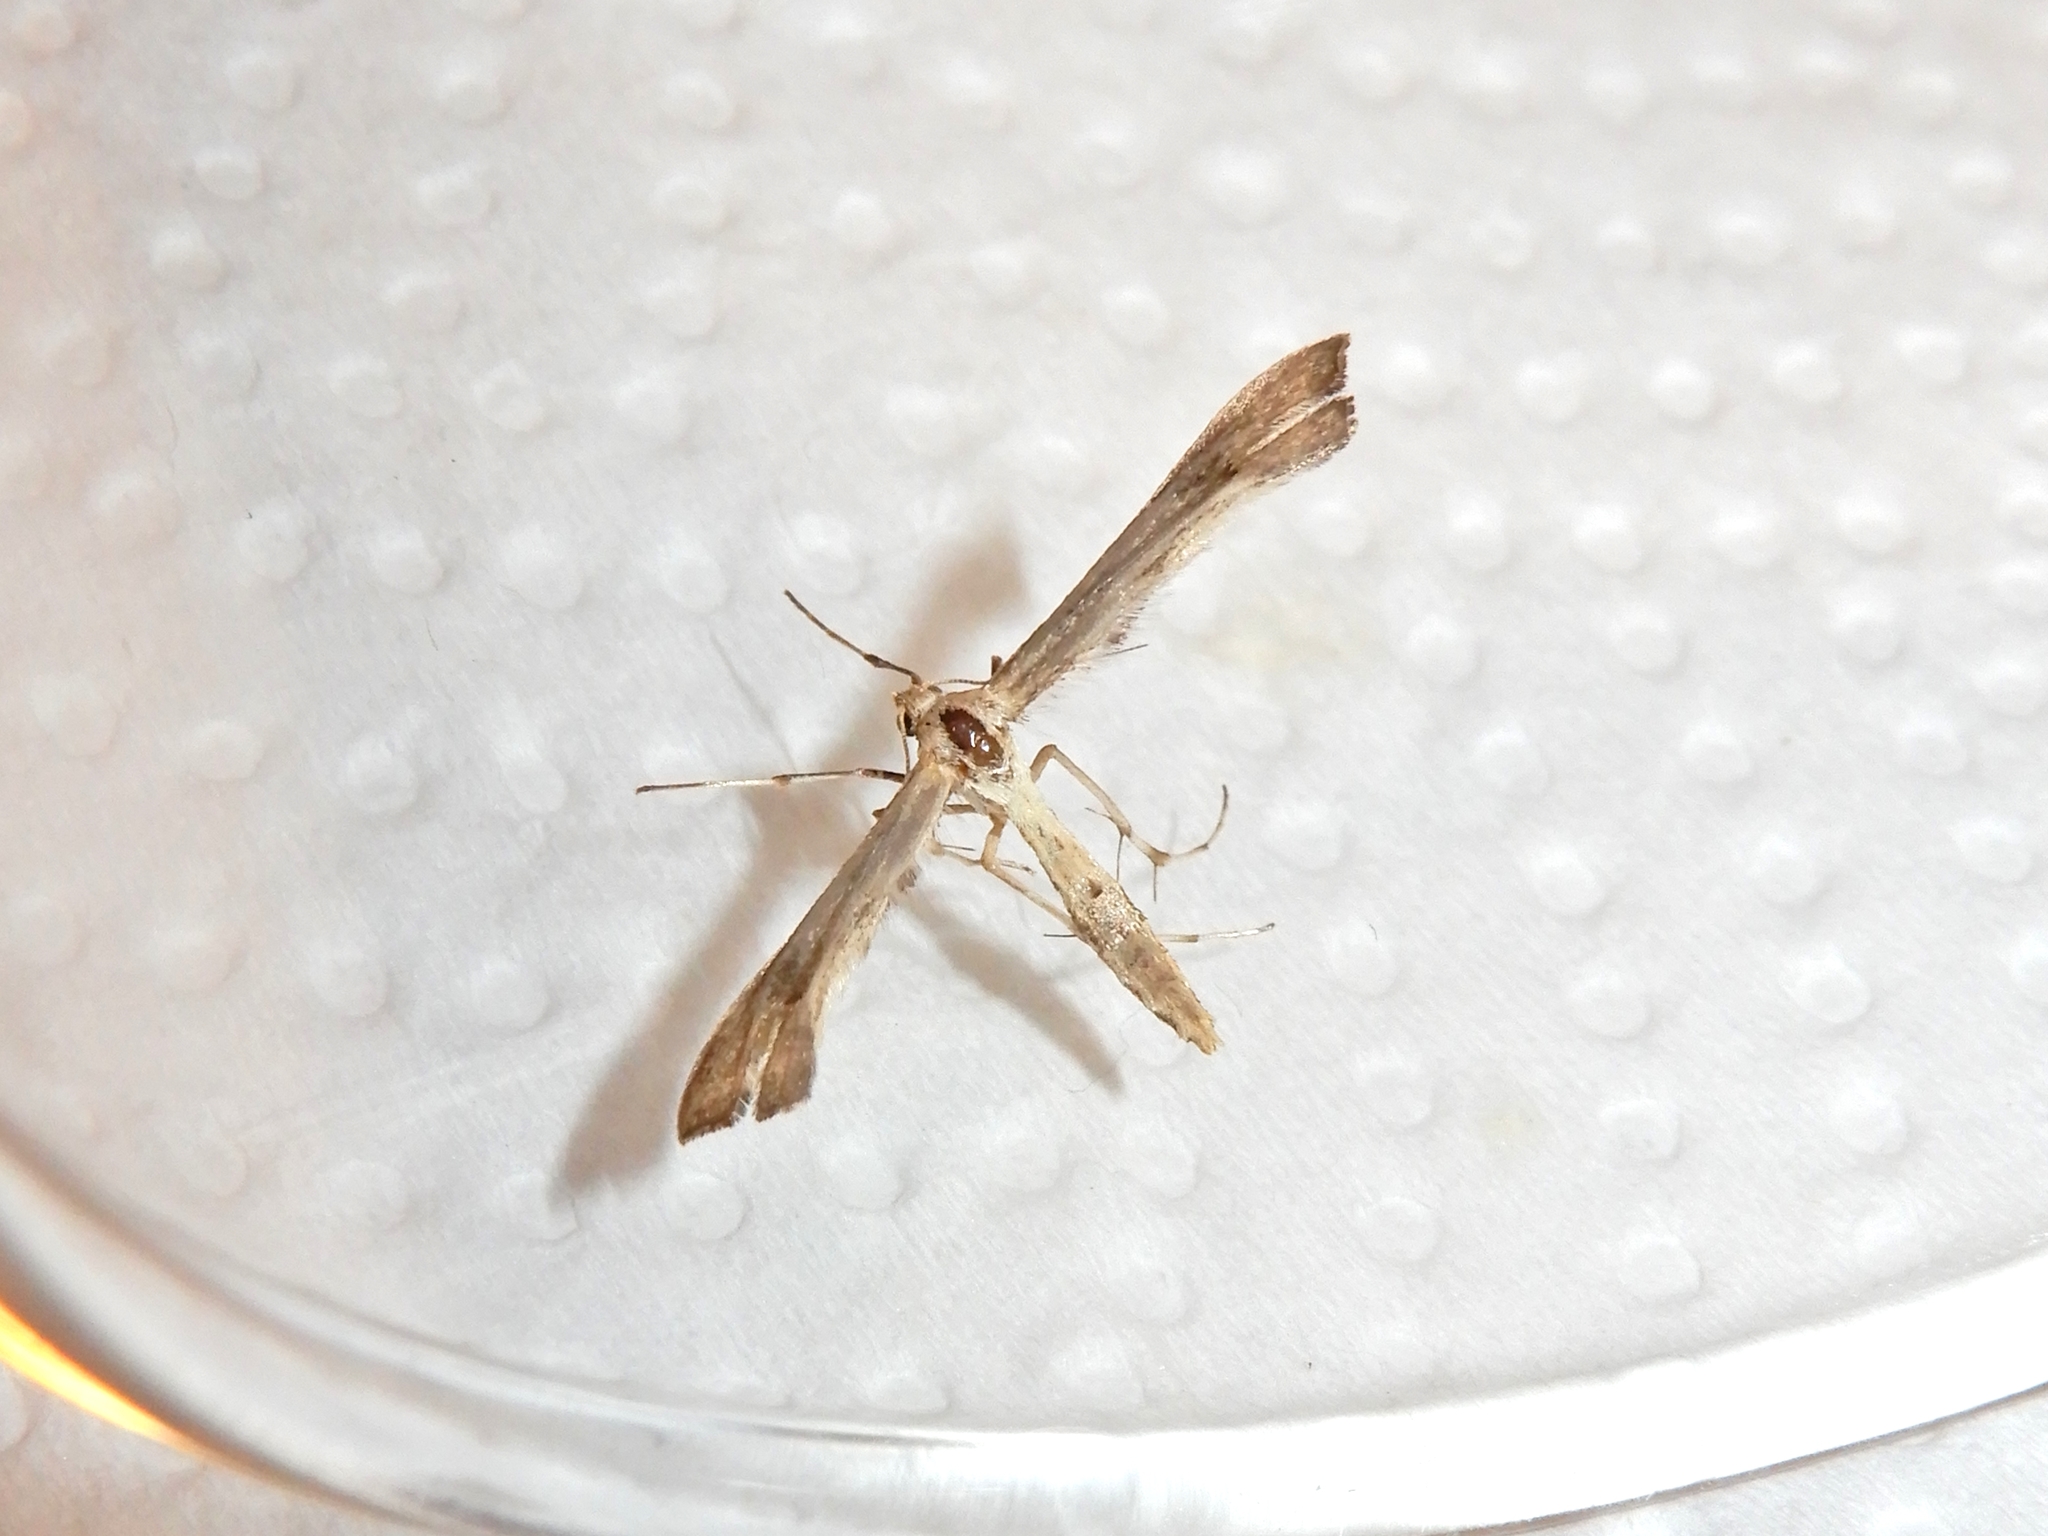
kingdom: Animalia
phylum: Arthropoda
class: Insecta
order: Lepidoptera
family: Pterophoridae
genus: Platyptilia
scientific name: Platyptilia isodactylus
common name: Hoary plume
